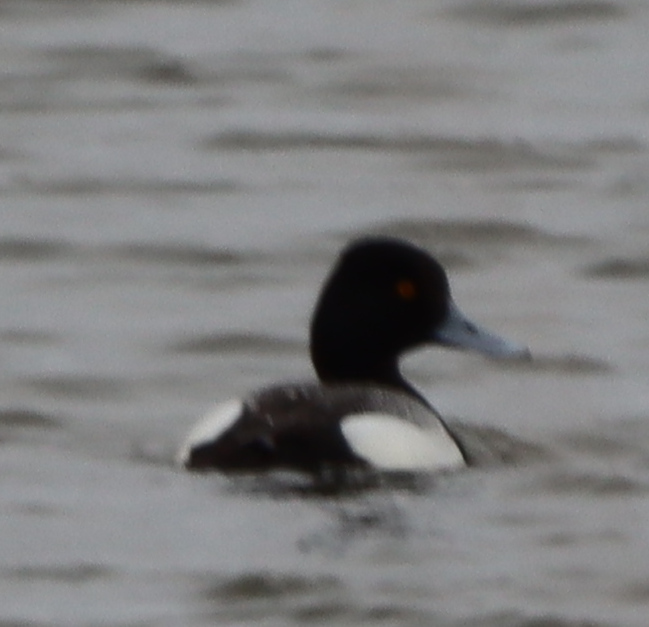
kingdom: Animalia
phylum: Chordata
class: Aves
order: Anseriformes
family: Anatidae
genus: Aythya
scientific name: Aythya affinis
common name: Lesser scaup
